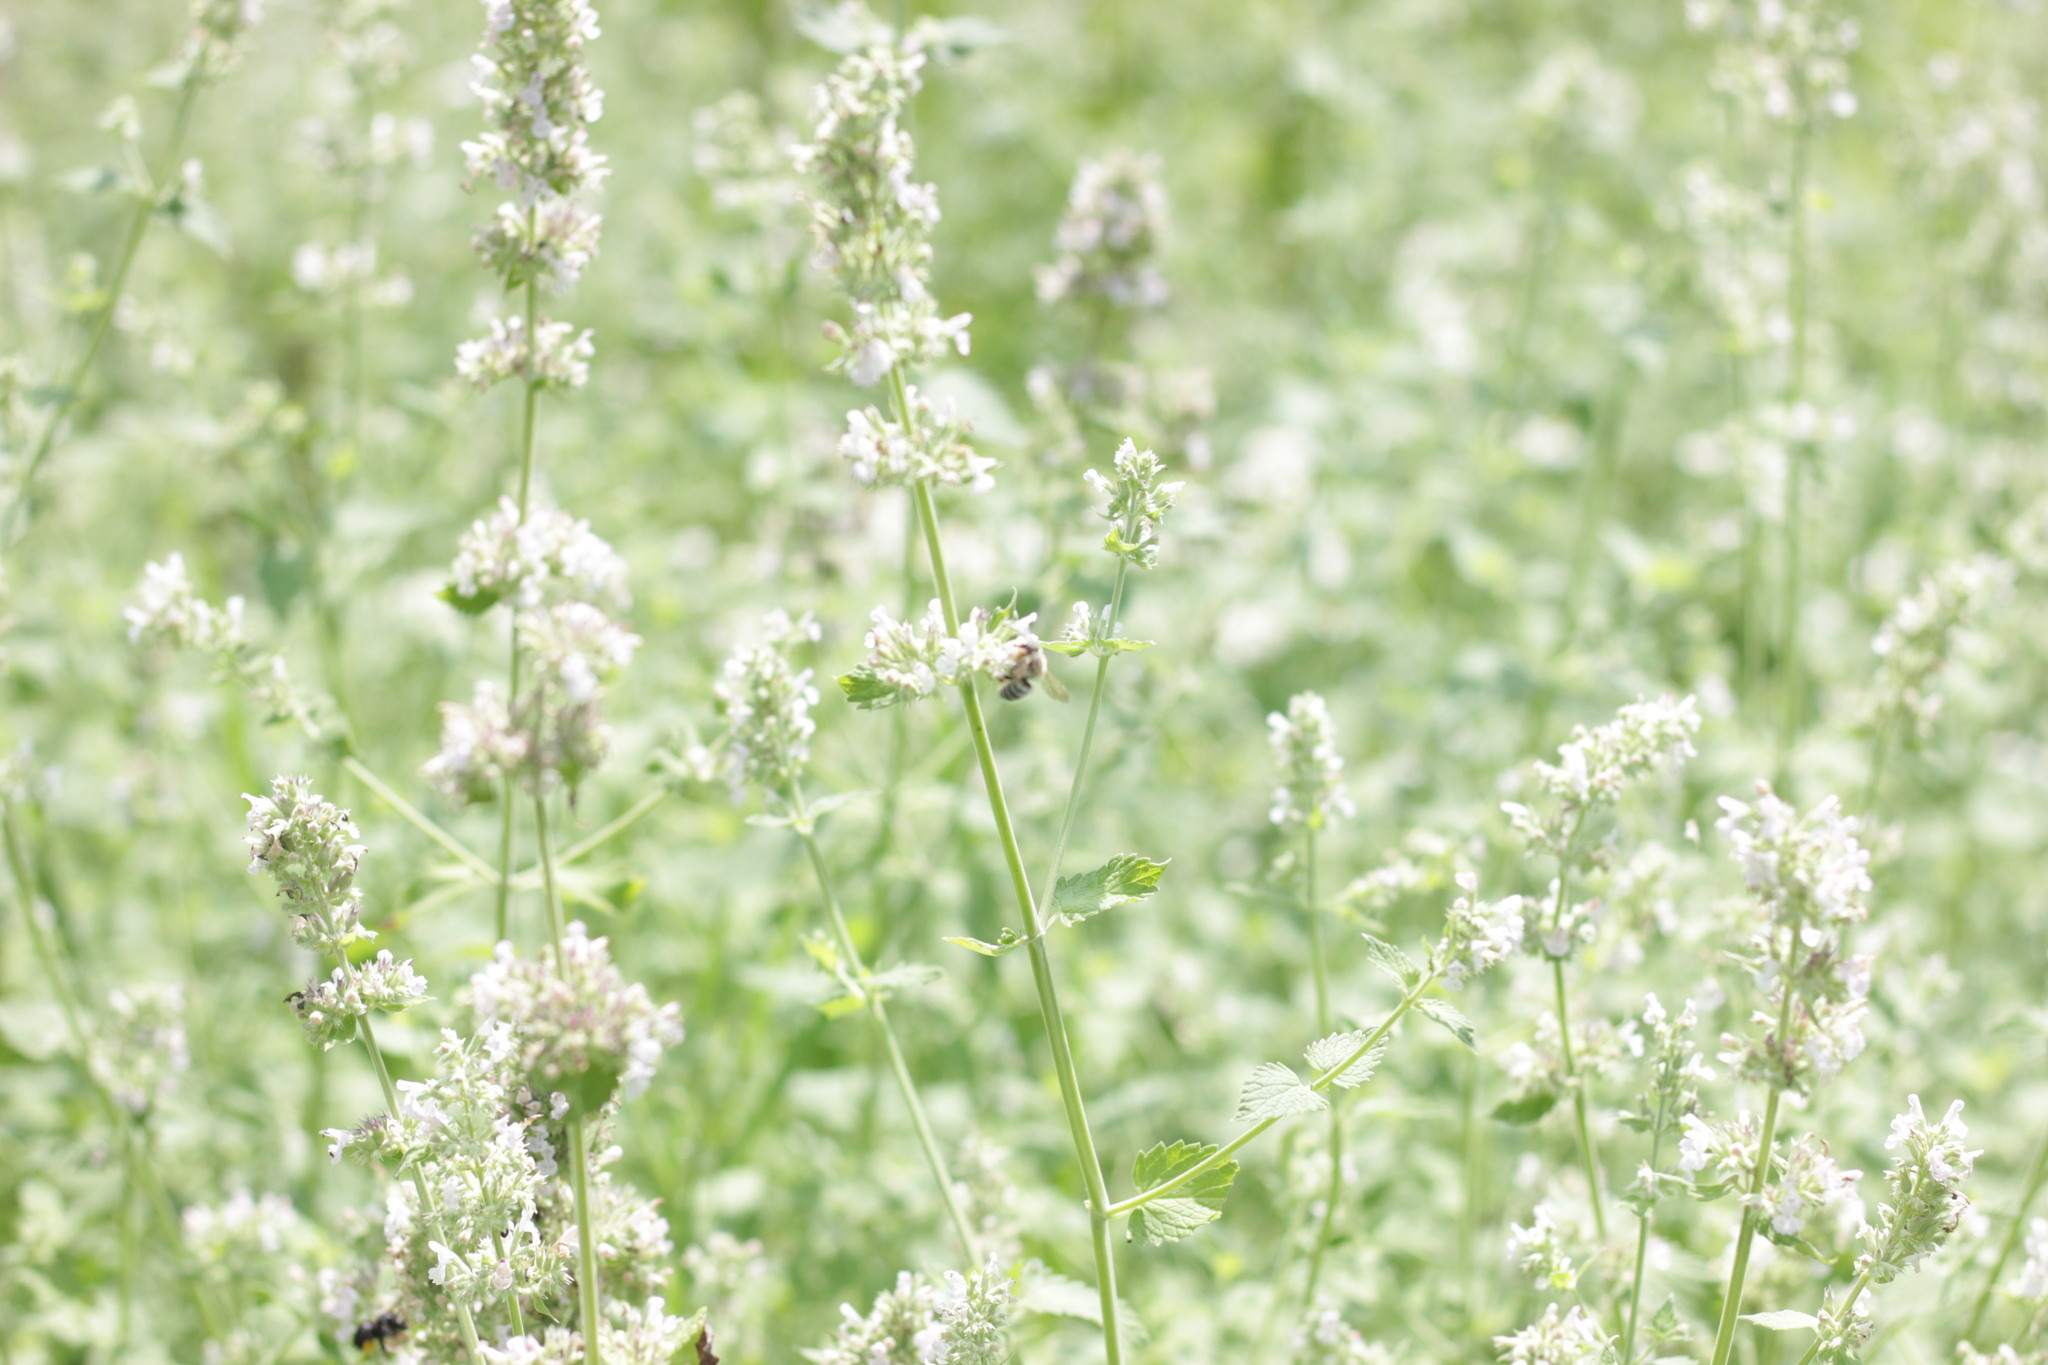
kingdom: Animalia
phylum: Arthropoda
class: Insecta
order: Hymenoptera
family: Apidae
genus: Apis
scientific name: Apis mellifera
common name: Honey bee
